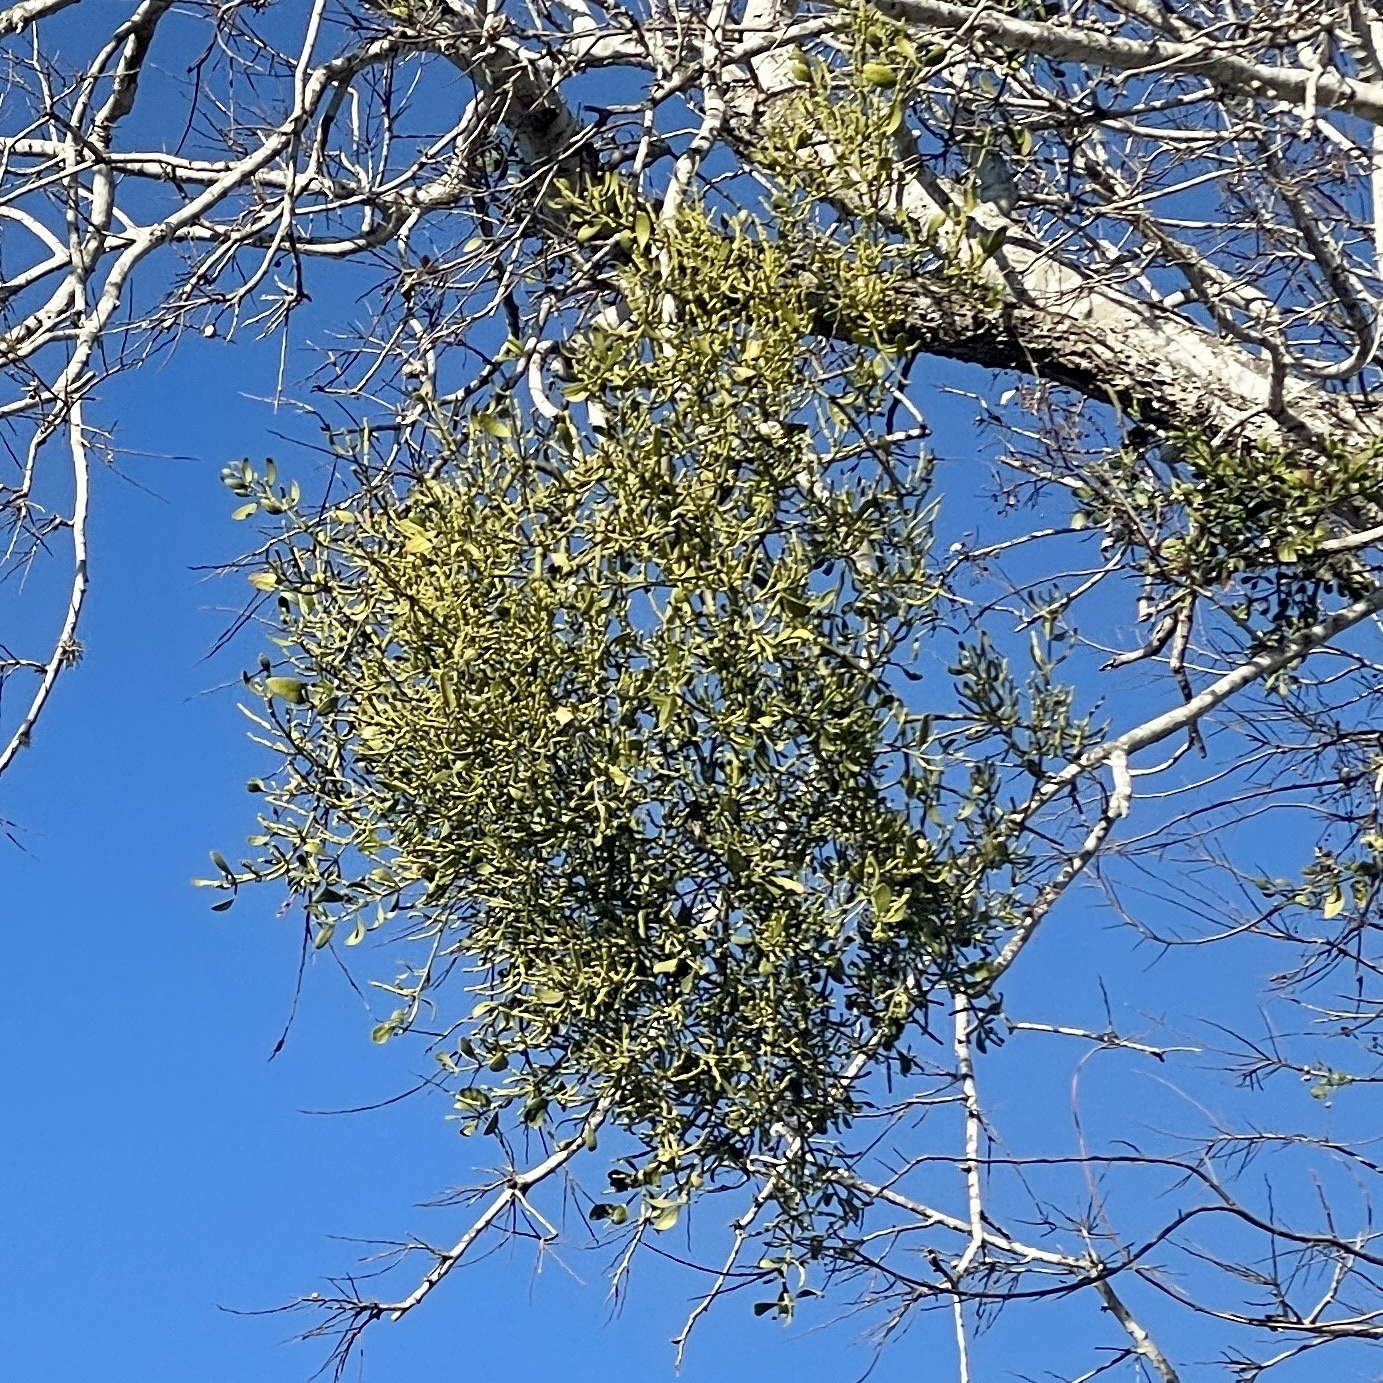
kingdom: Plantae
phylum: Tracheophyta
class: Magnoliopsida
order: Santalales
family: Viscaceae
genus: Phoradendron
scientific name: Phoradendron leucarpum
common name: Pacific mistletoe
